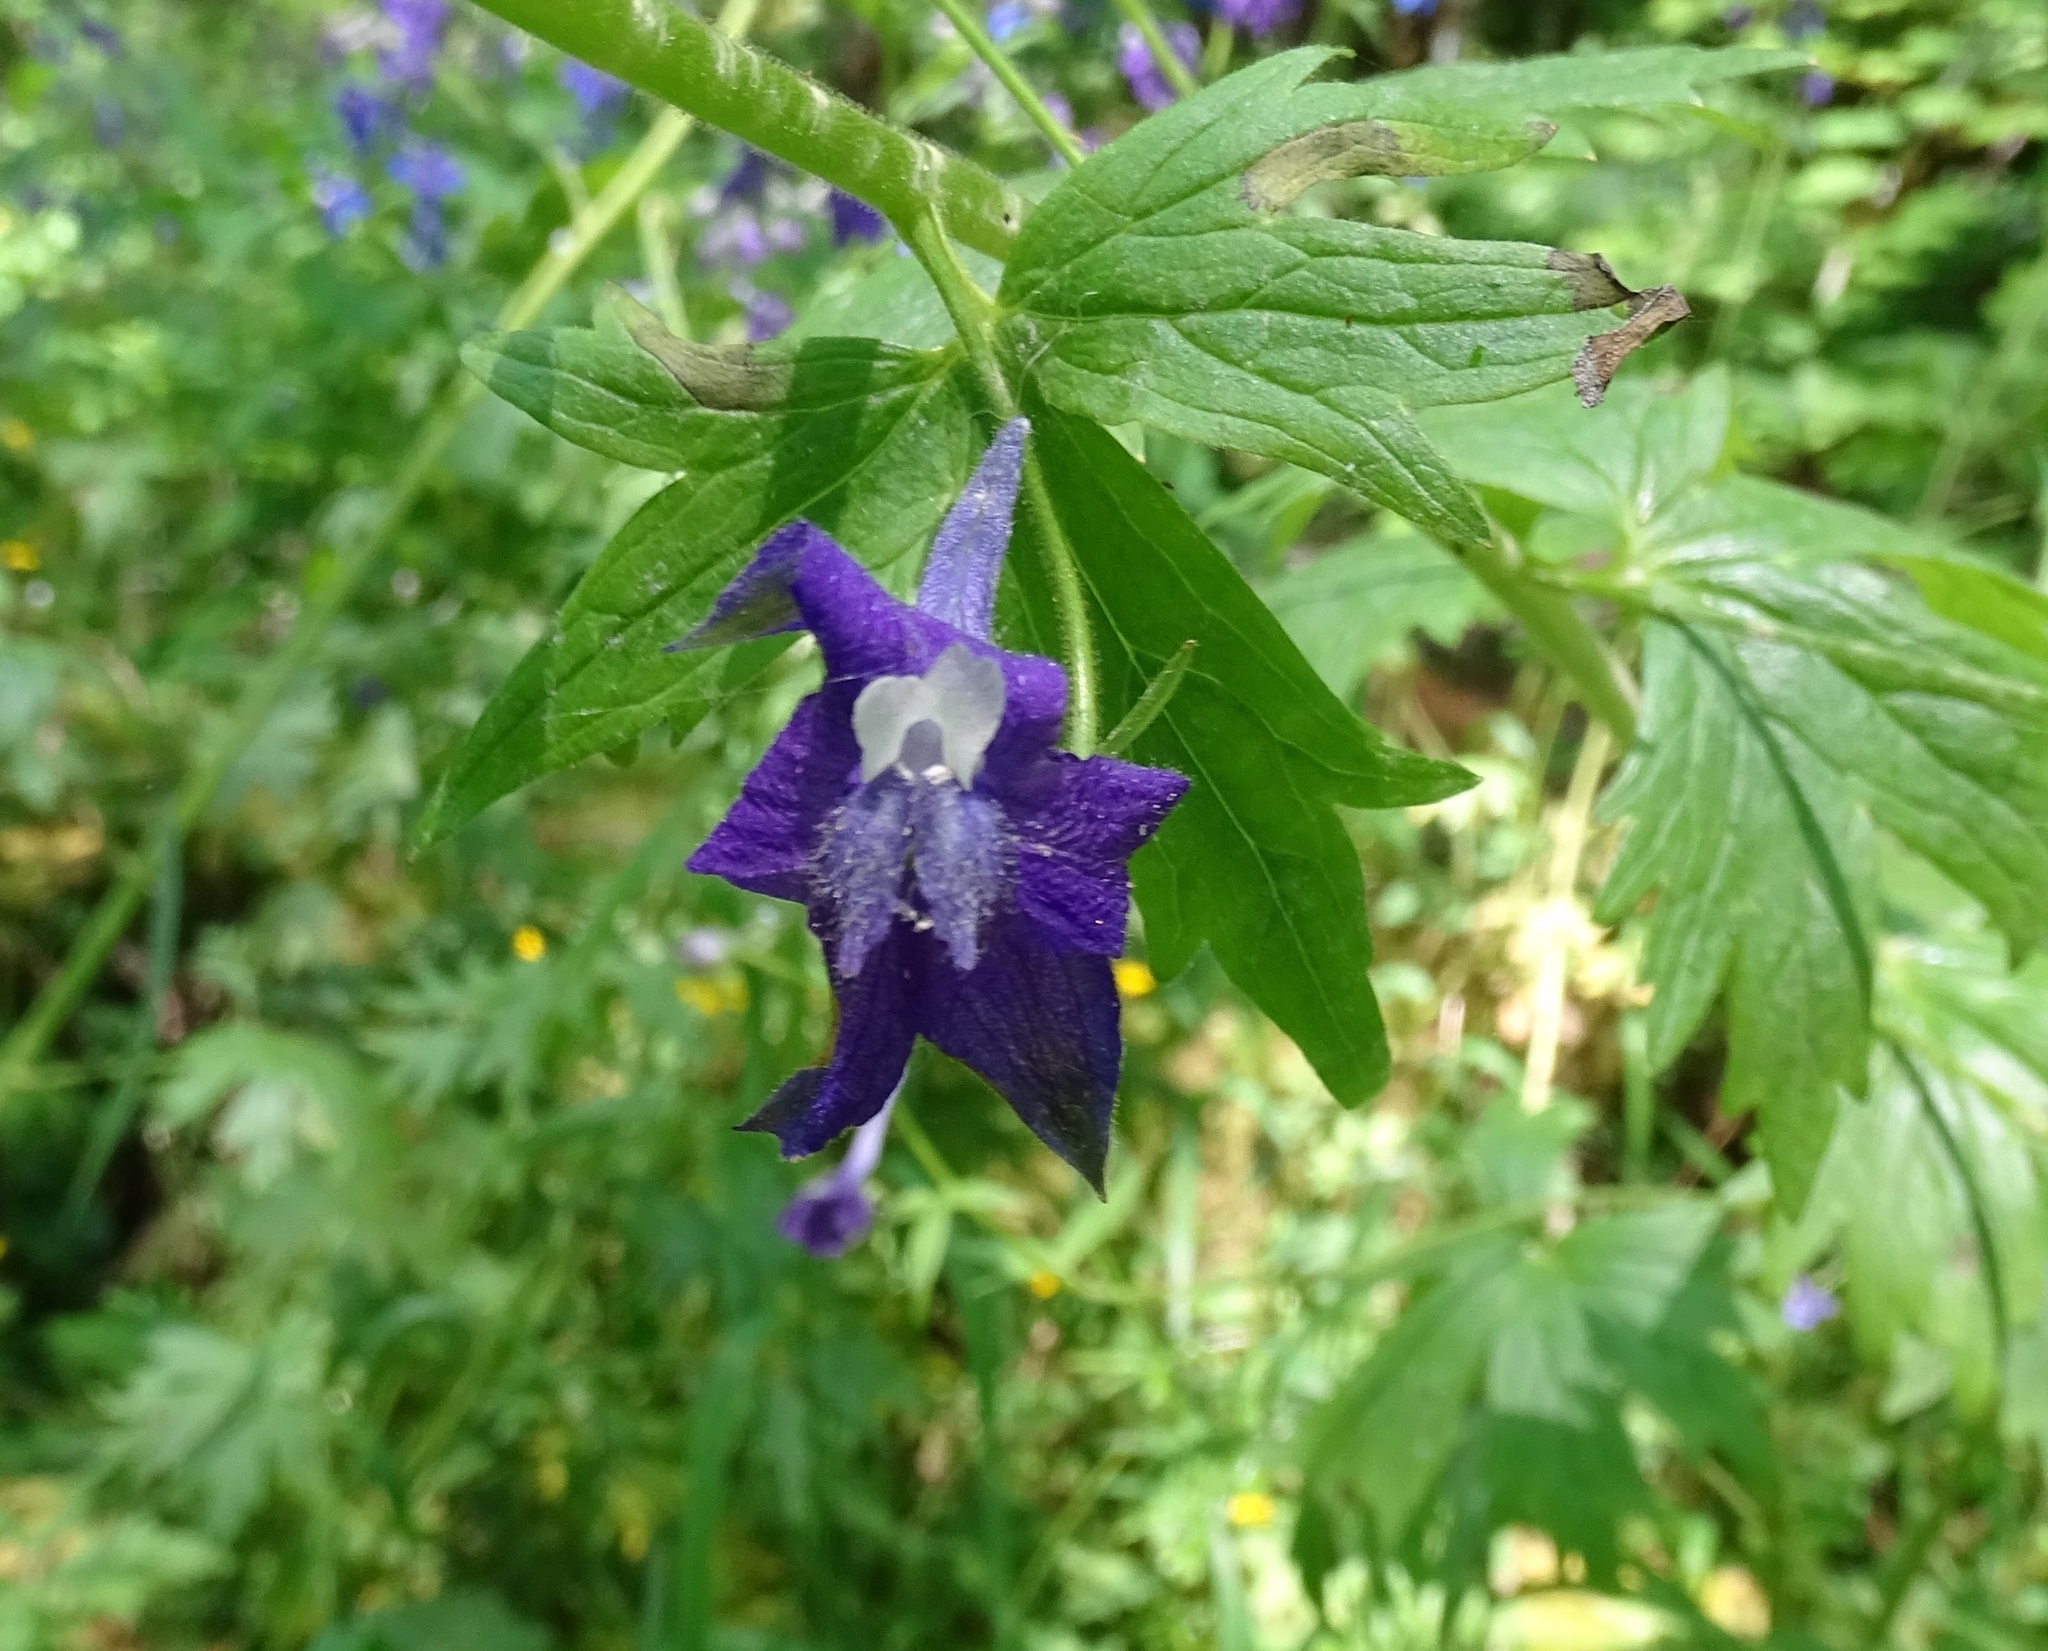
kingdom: Plantae
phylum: Tracheophyta
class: Magnoliopsida
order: Ranunculales
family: Ranunculaceae
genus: Delphinium
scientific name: Delphinium trolliifolium
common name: Cow-poison
